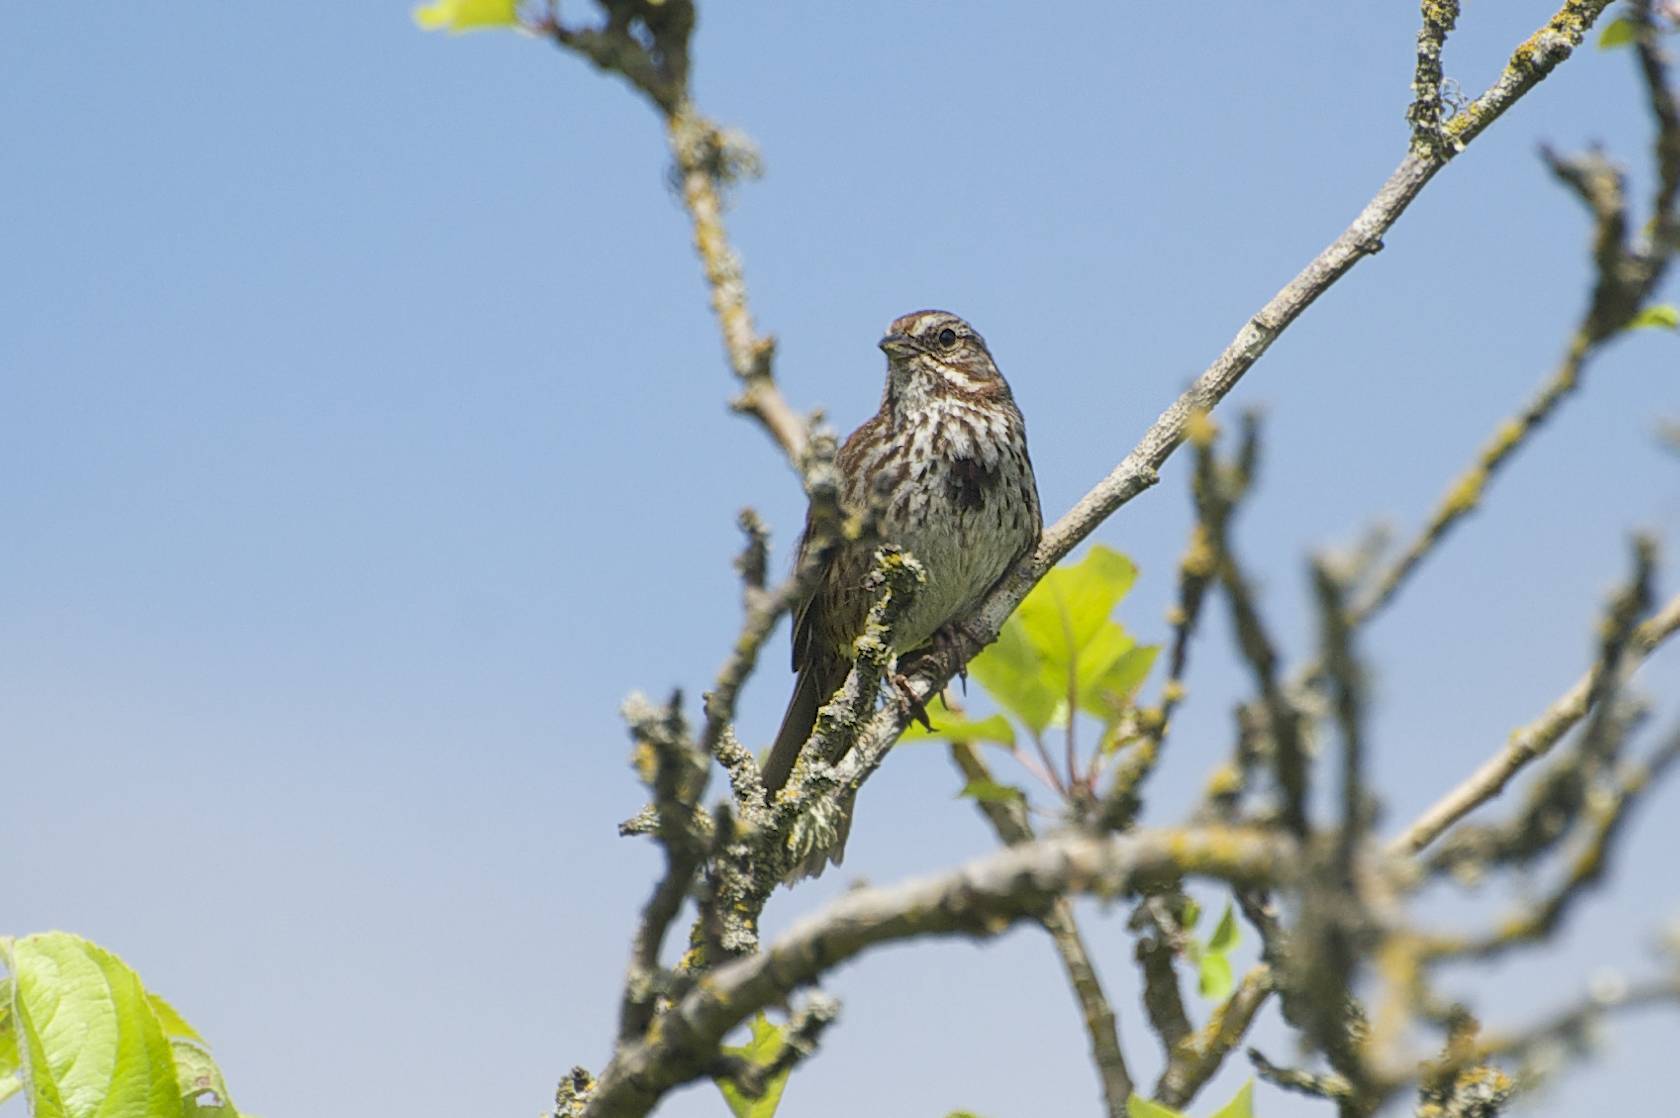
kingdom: Animalia
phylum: Chordata
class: Aves
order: Passeriformes
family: Passerellidae
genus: Melospiza
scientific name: Melospiza melodia
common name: Song sparrow
